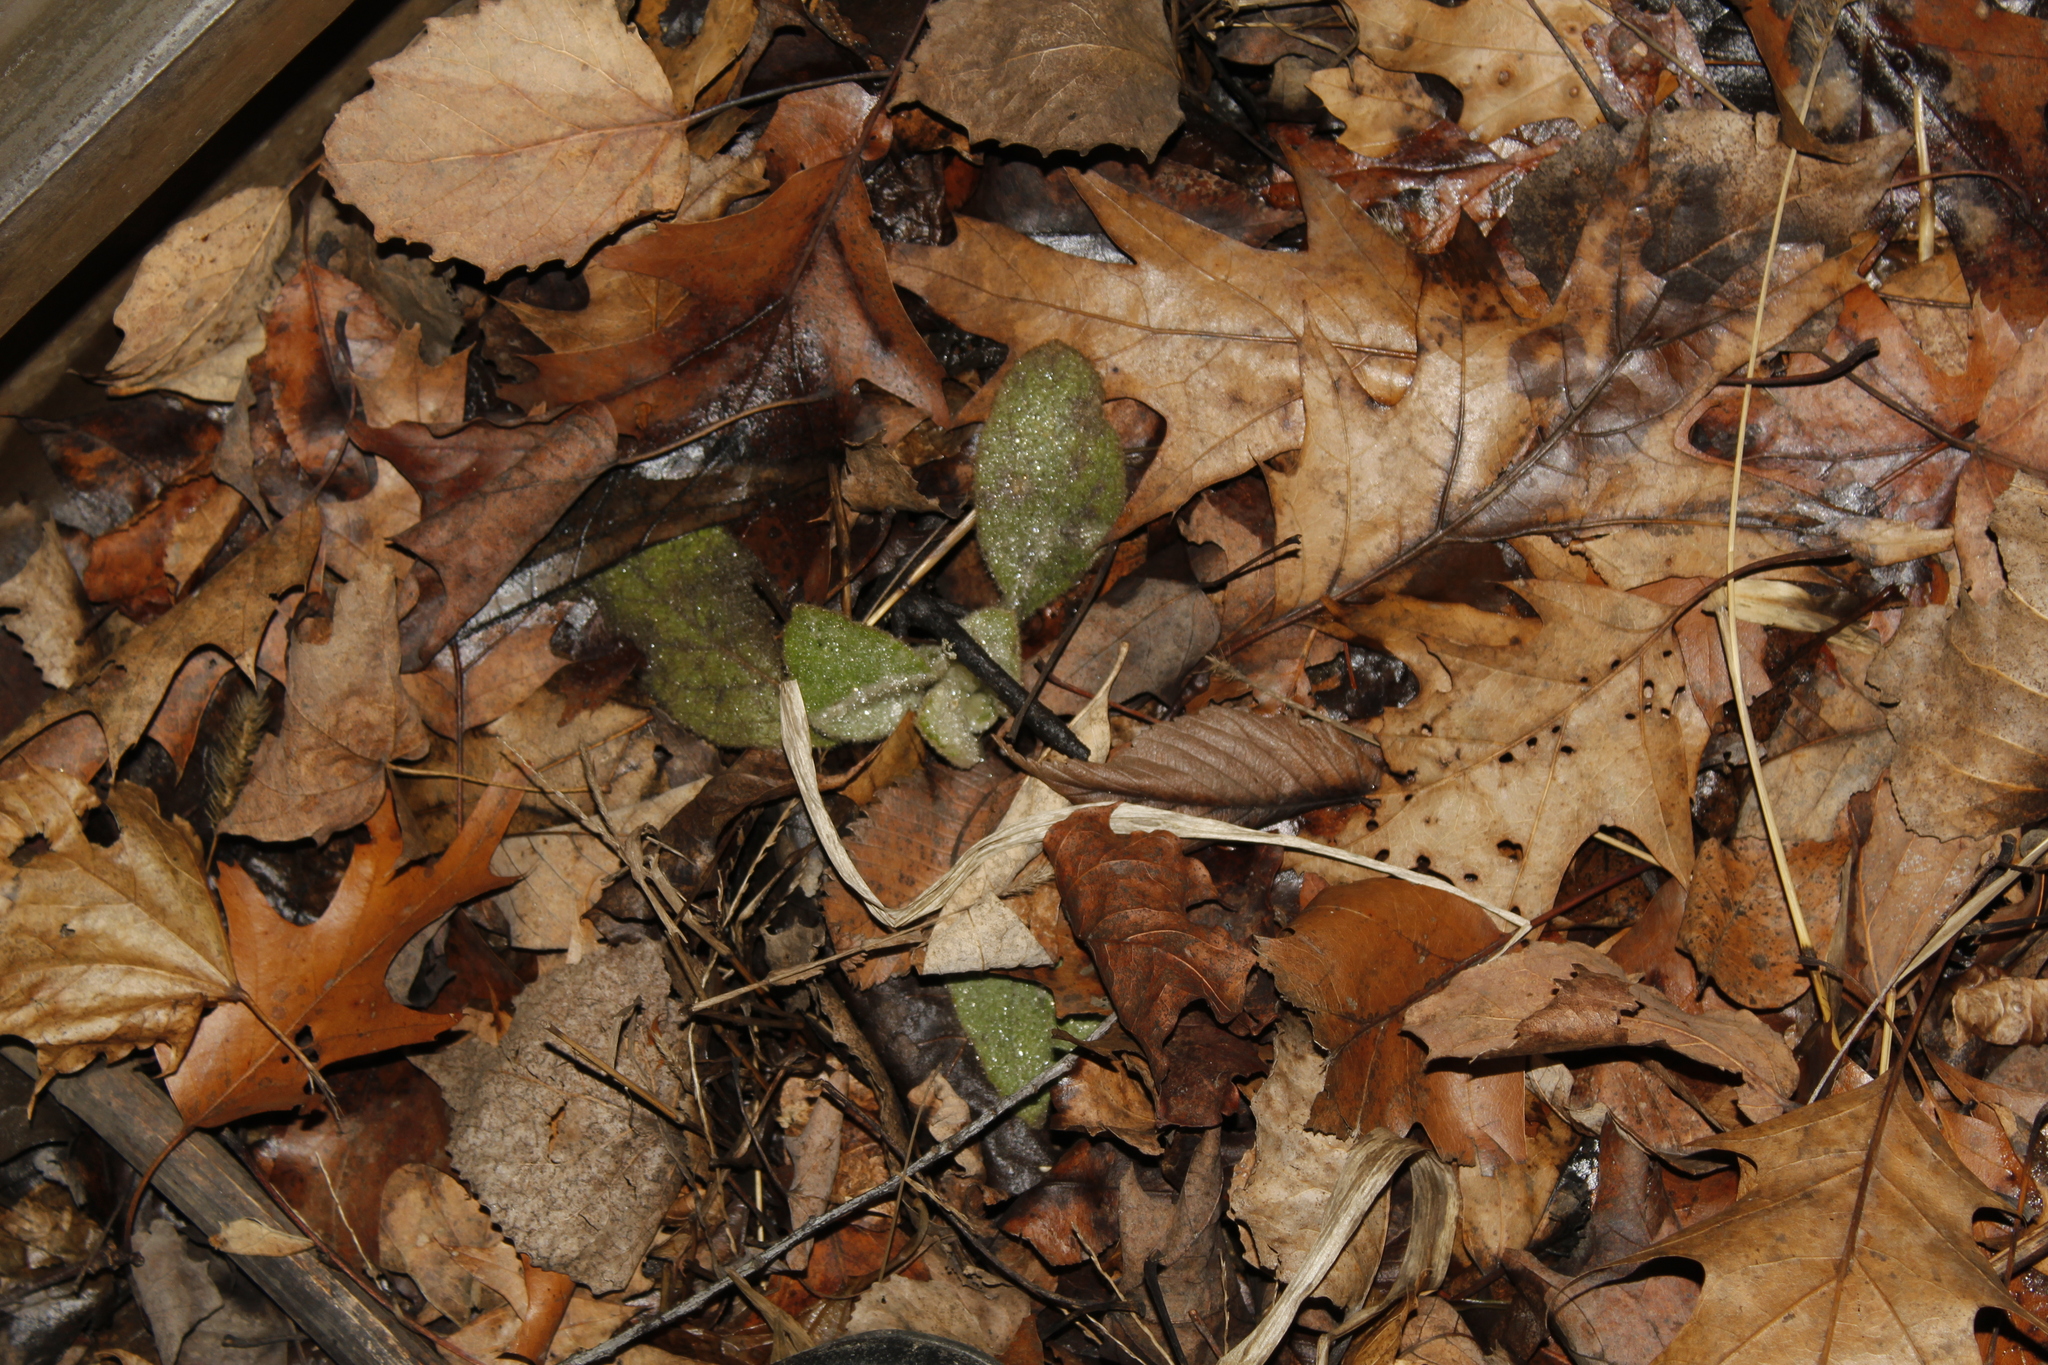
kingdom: Plantae
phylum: Tracheophyta
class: Magnoliopsida
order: Lamiales
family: Scrophulariaceae
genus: Verbascum
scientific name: Verbascum thapsus
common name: Common mullein
